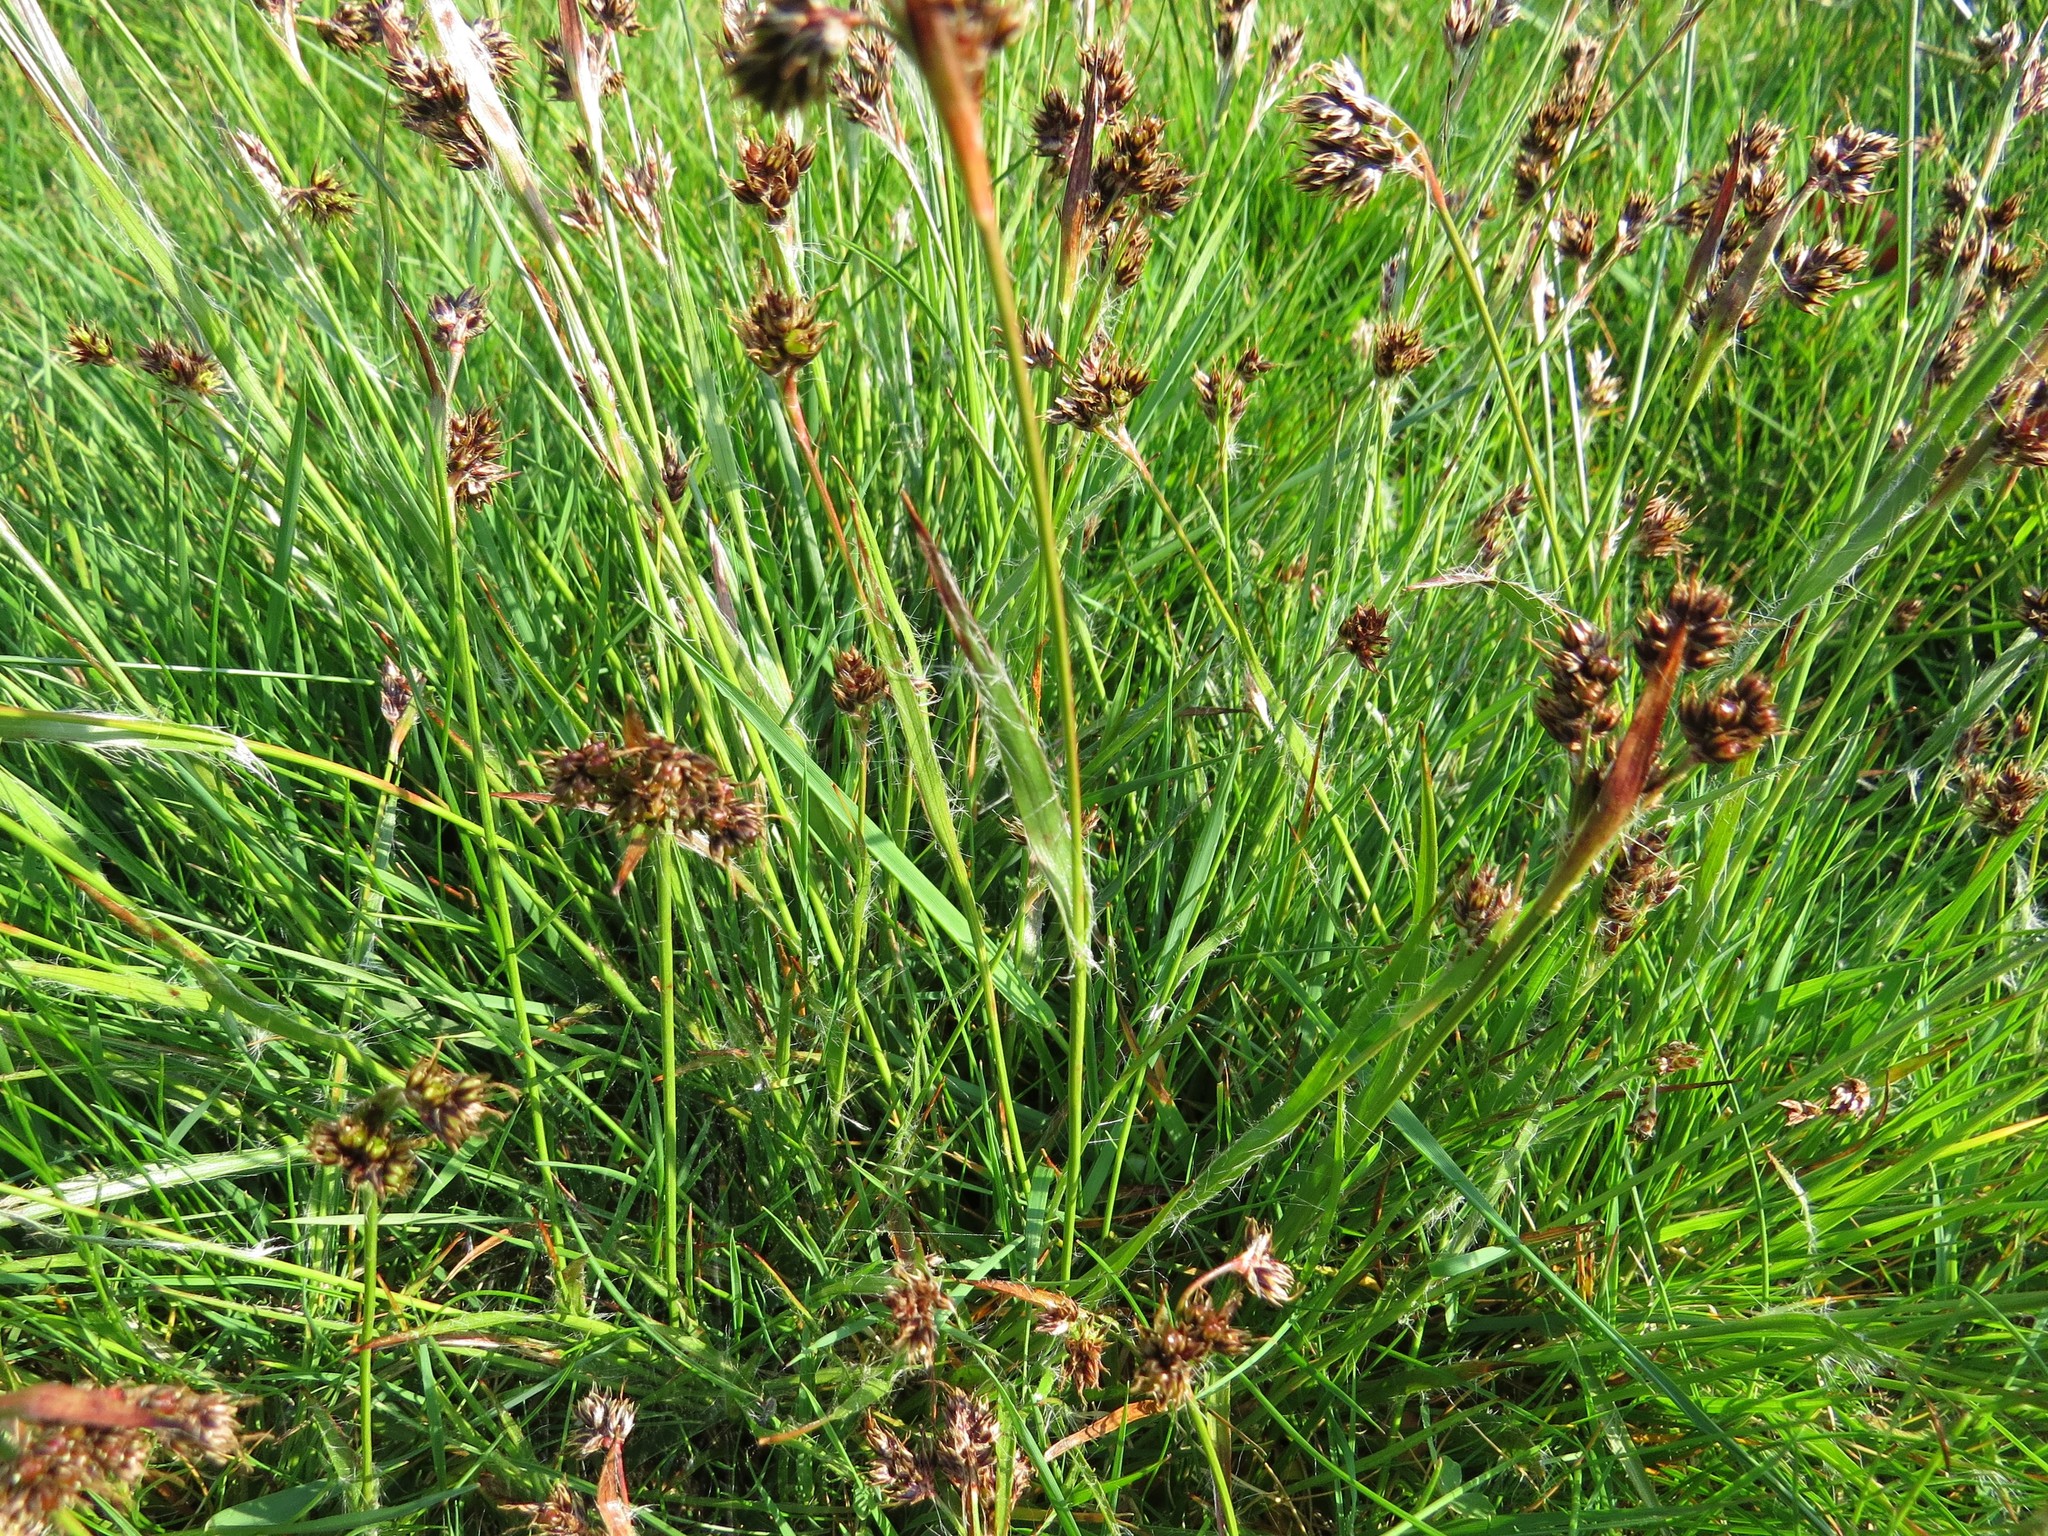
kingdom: Plantae
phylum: Tracheophyta
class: Liliopsida
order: Poales
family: Juncaceae
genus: Luzula
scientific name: Luzula campestris
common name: Field wood-rush
